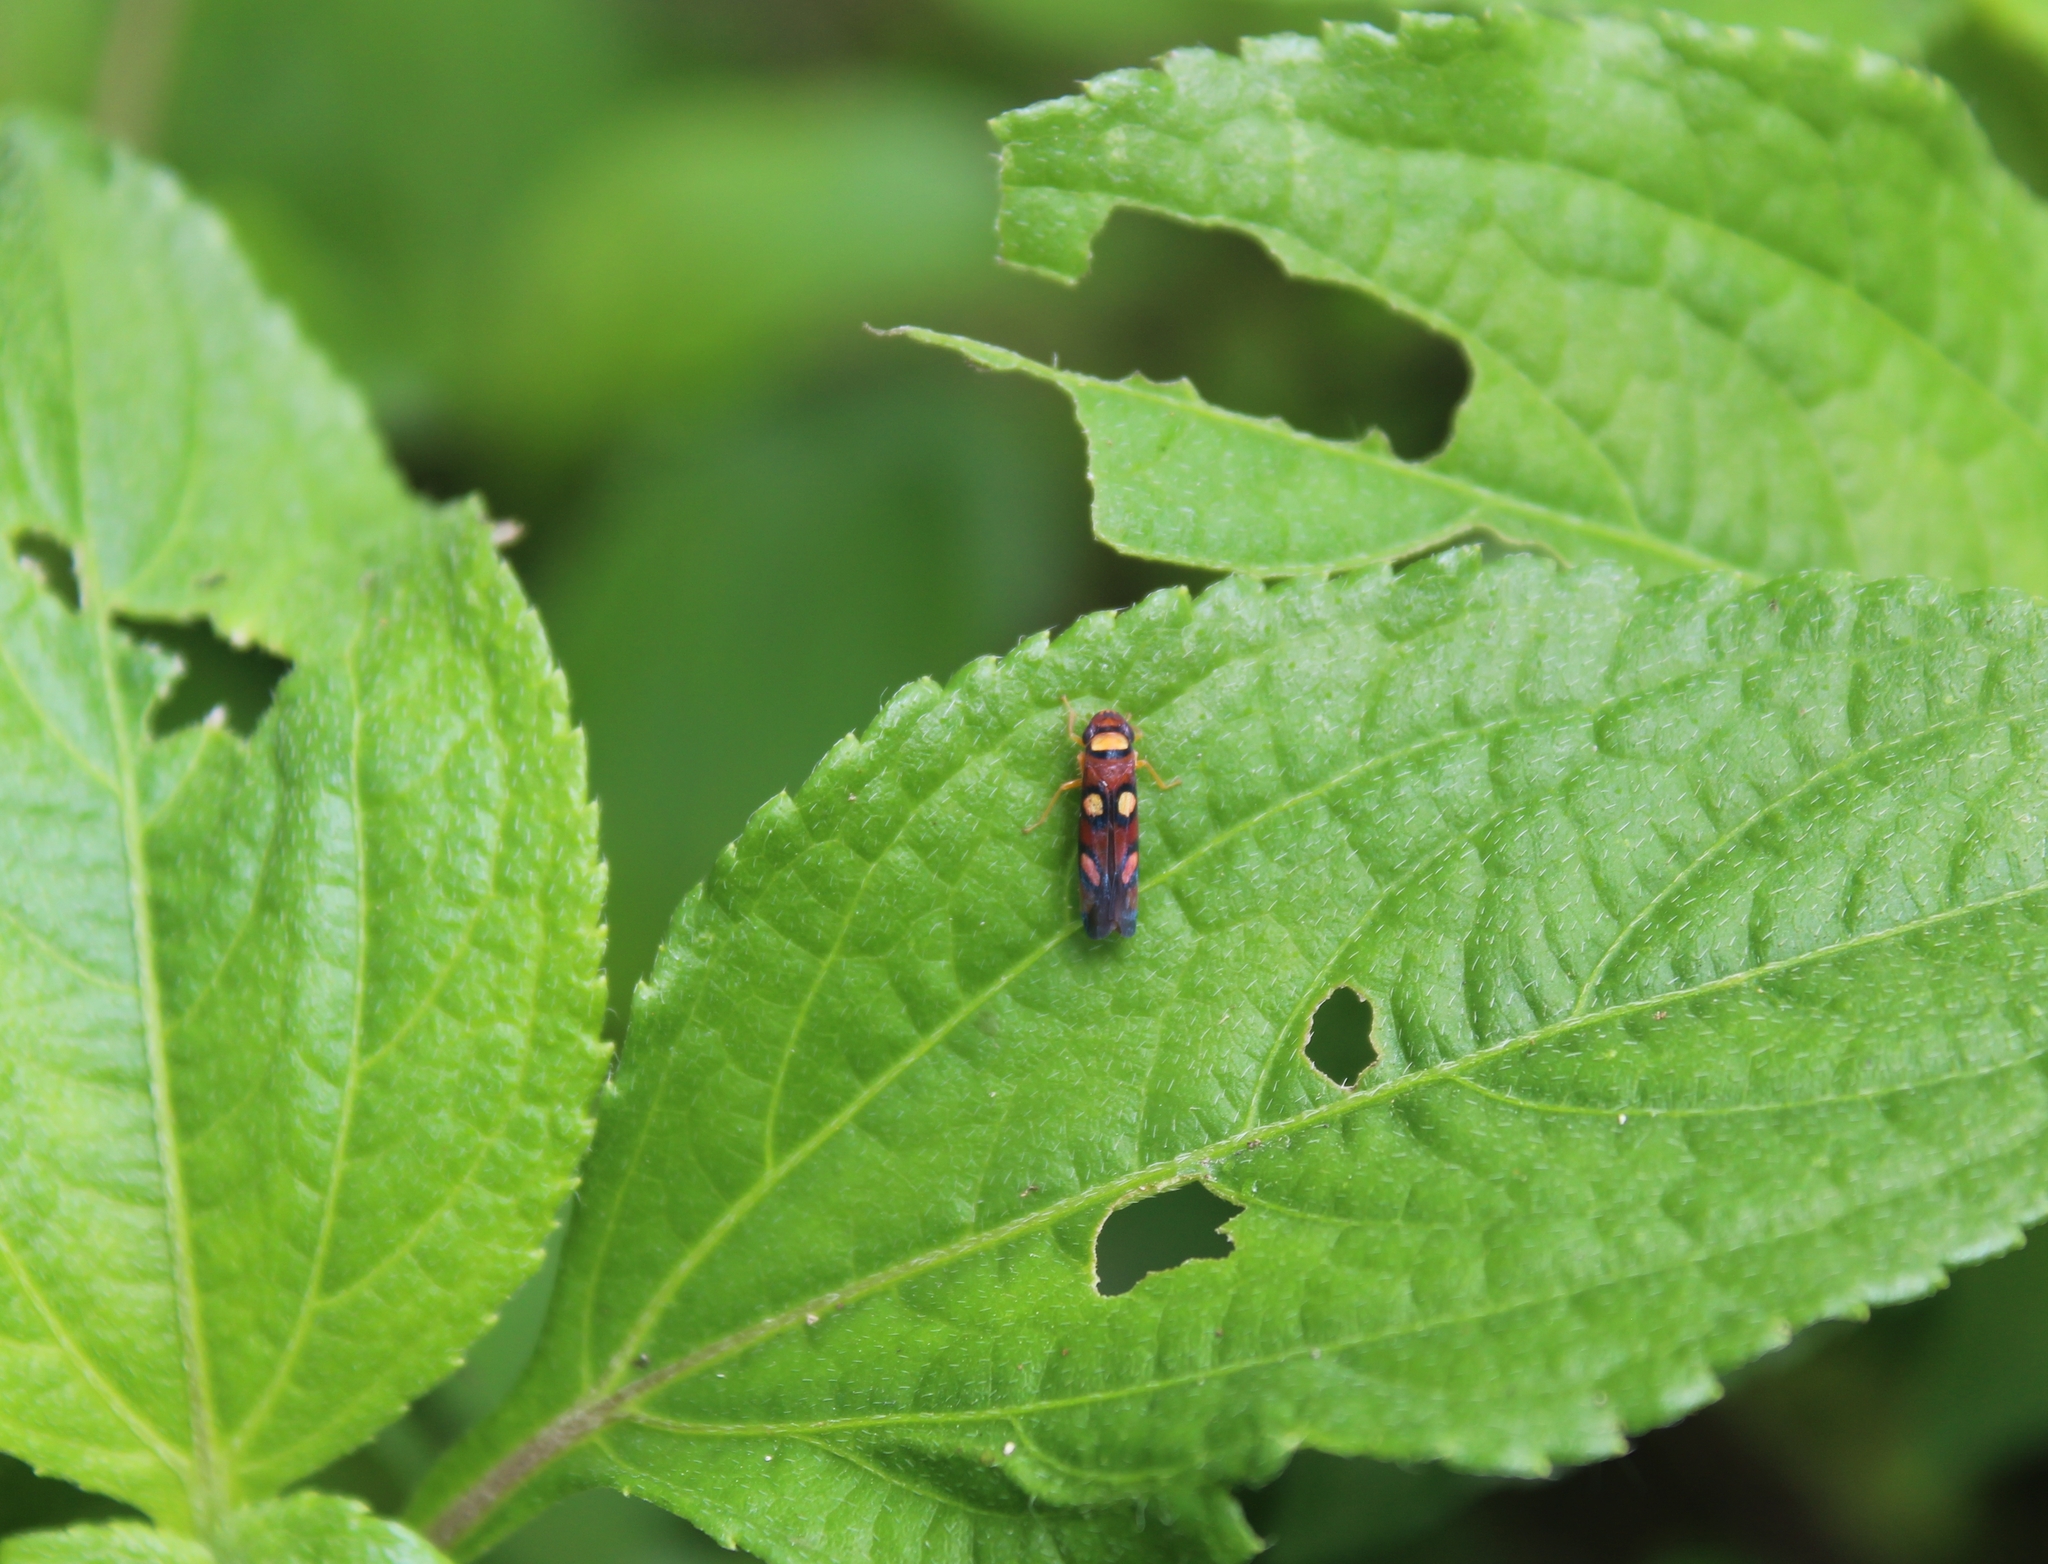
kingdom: Animalia
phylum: Arthropoda
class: Insecta
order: Hemiptera
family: Cicadellidae
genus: Erythrogonia
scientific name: Erythrogonia areolata
